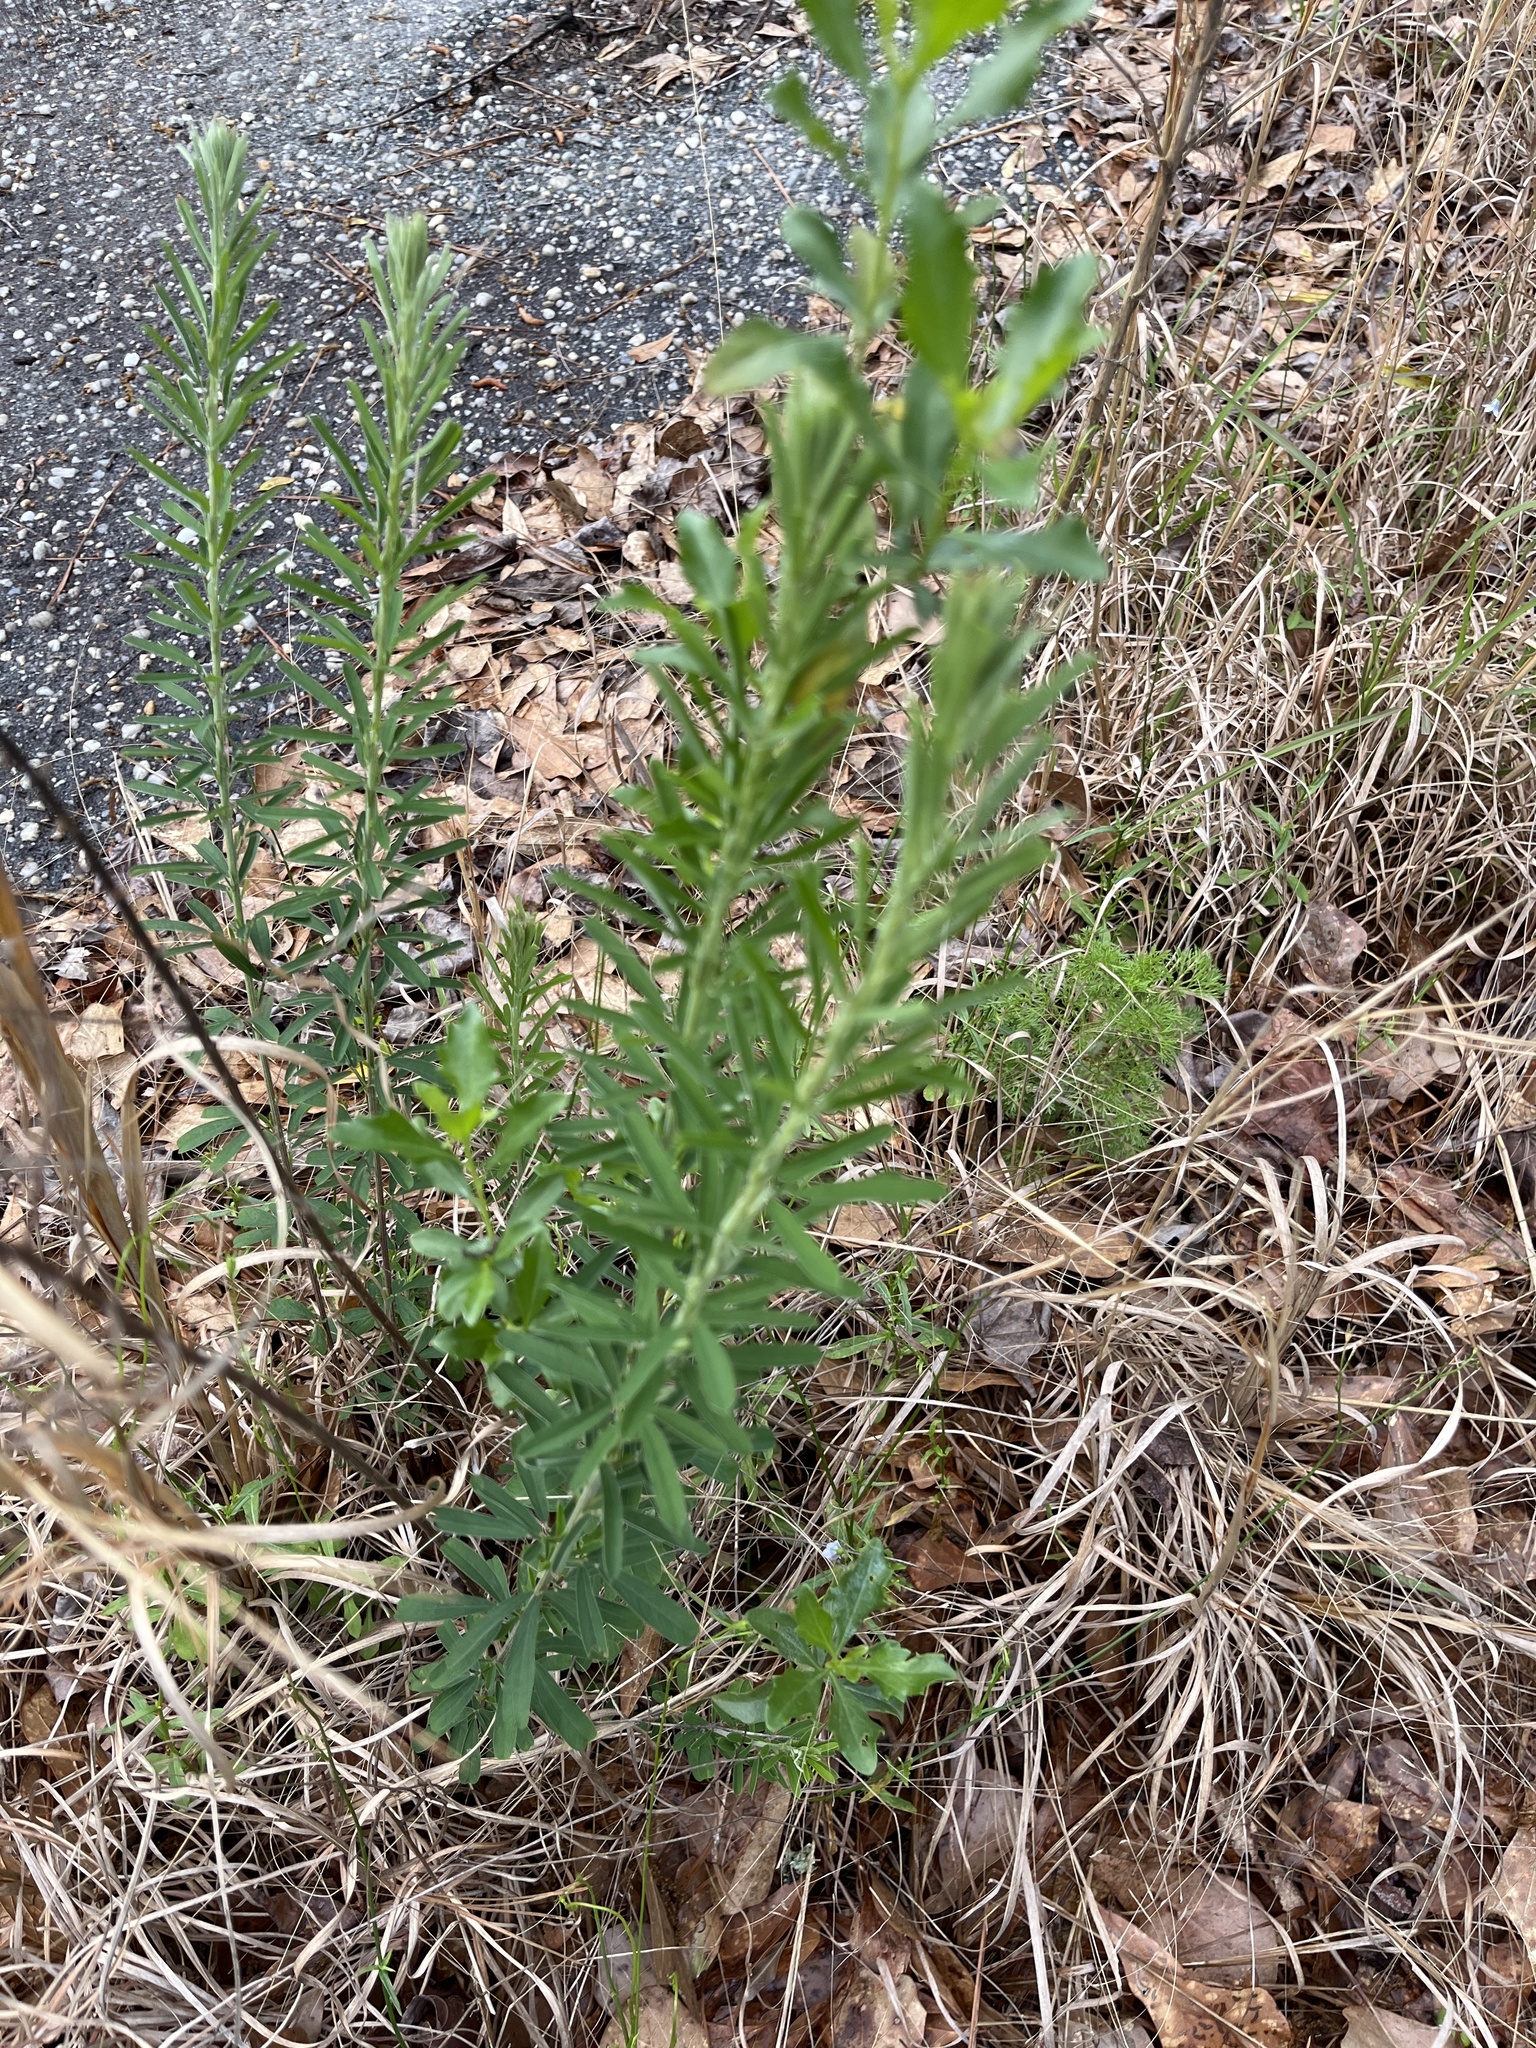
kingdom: Plantae
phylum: Tracheophyta
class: Magnoliopsida
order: Fabales
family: Fabaceae
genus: Lespedeza
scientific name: Lespedeza cuneata
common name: Chinese bush-clover
